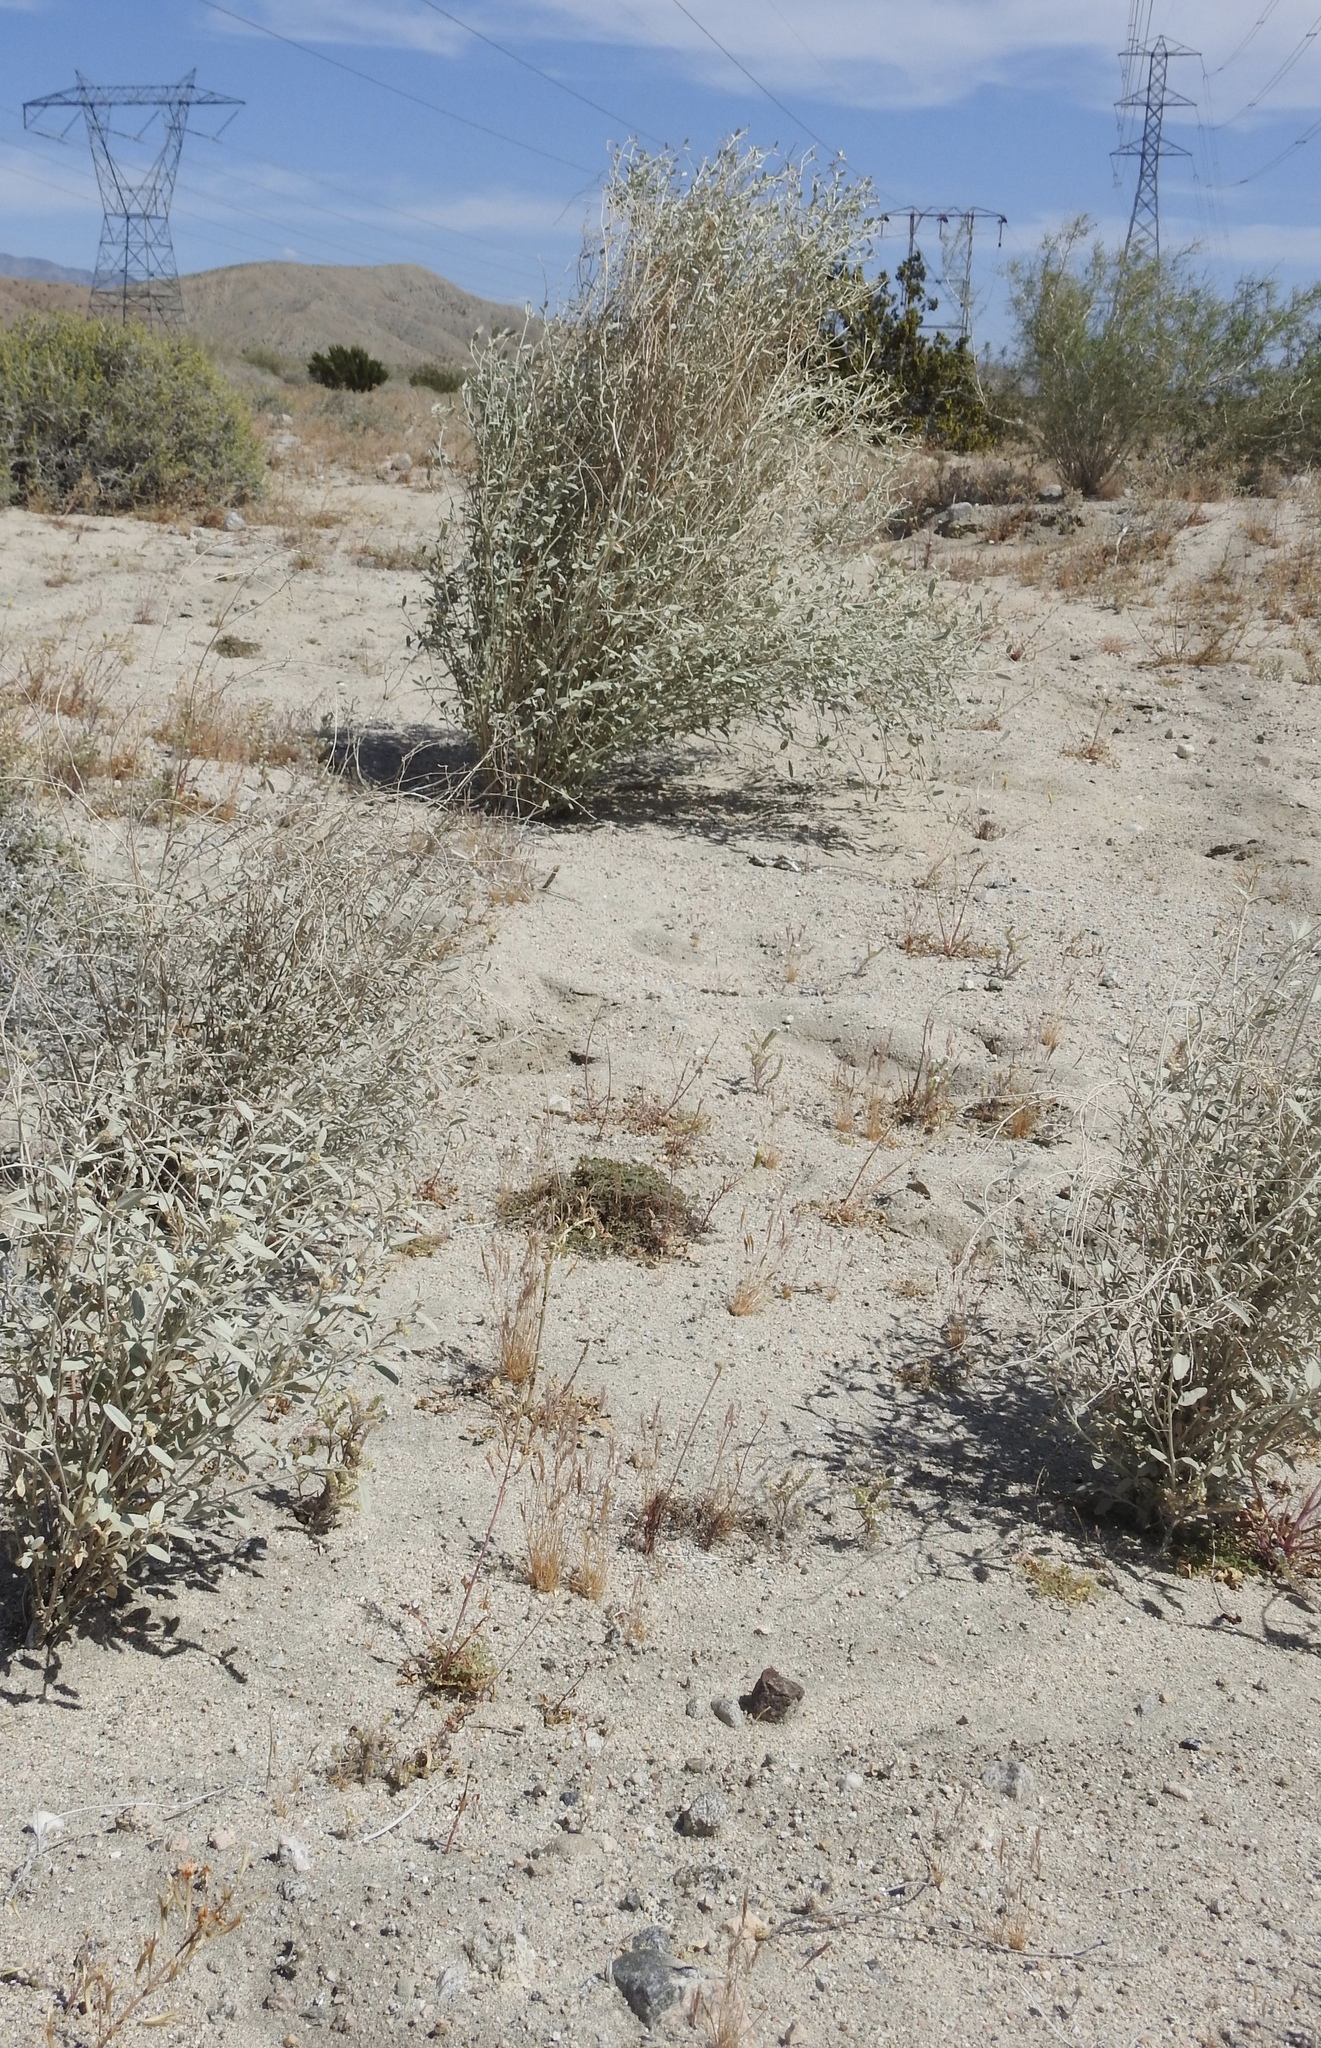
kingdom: Plantae
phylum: Tracheophyta
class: Magnoliopsida
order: Malpighiales
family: Euphorbiaceae
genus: Croton
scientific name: Croton californicus
